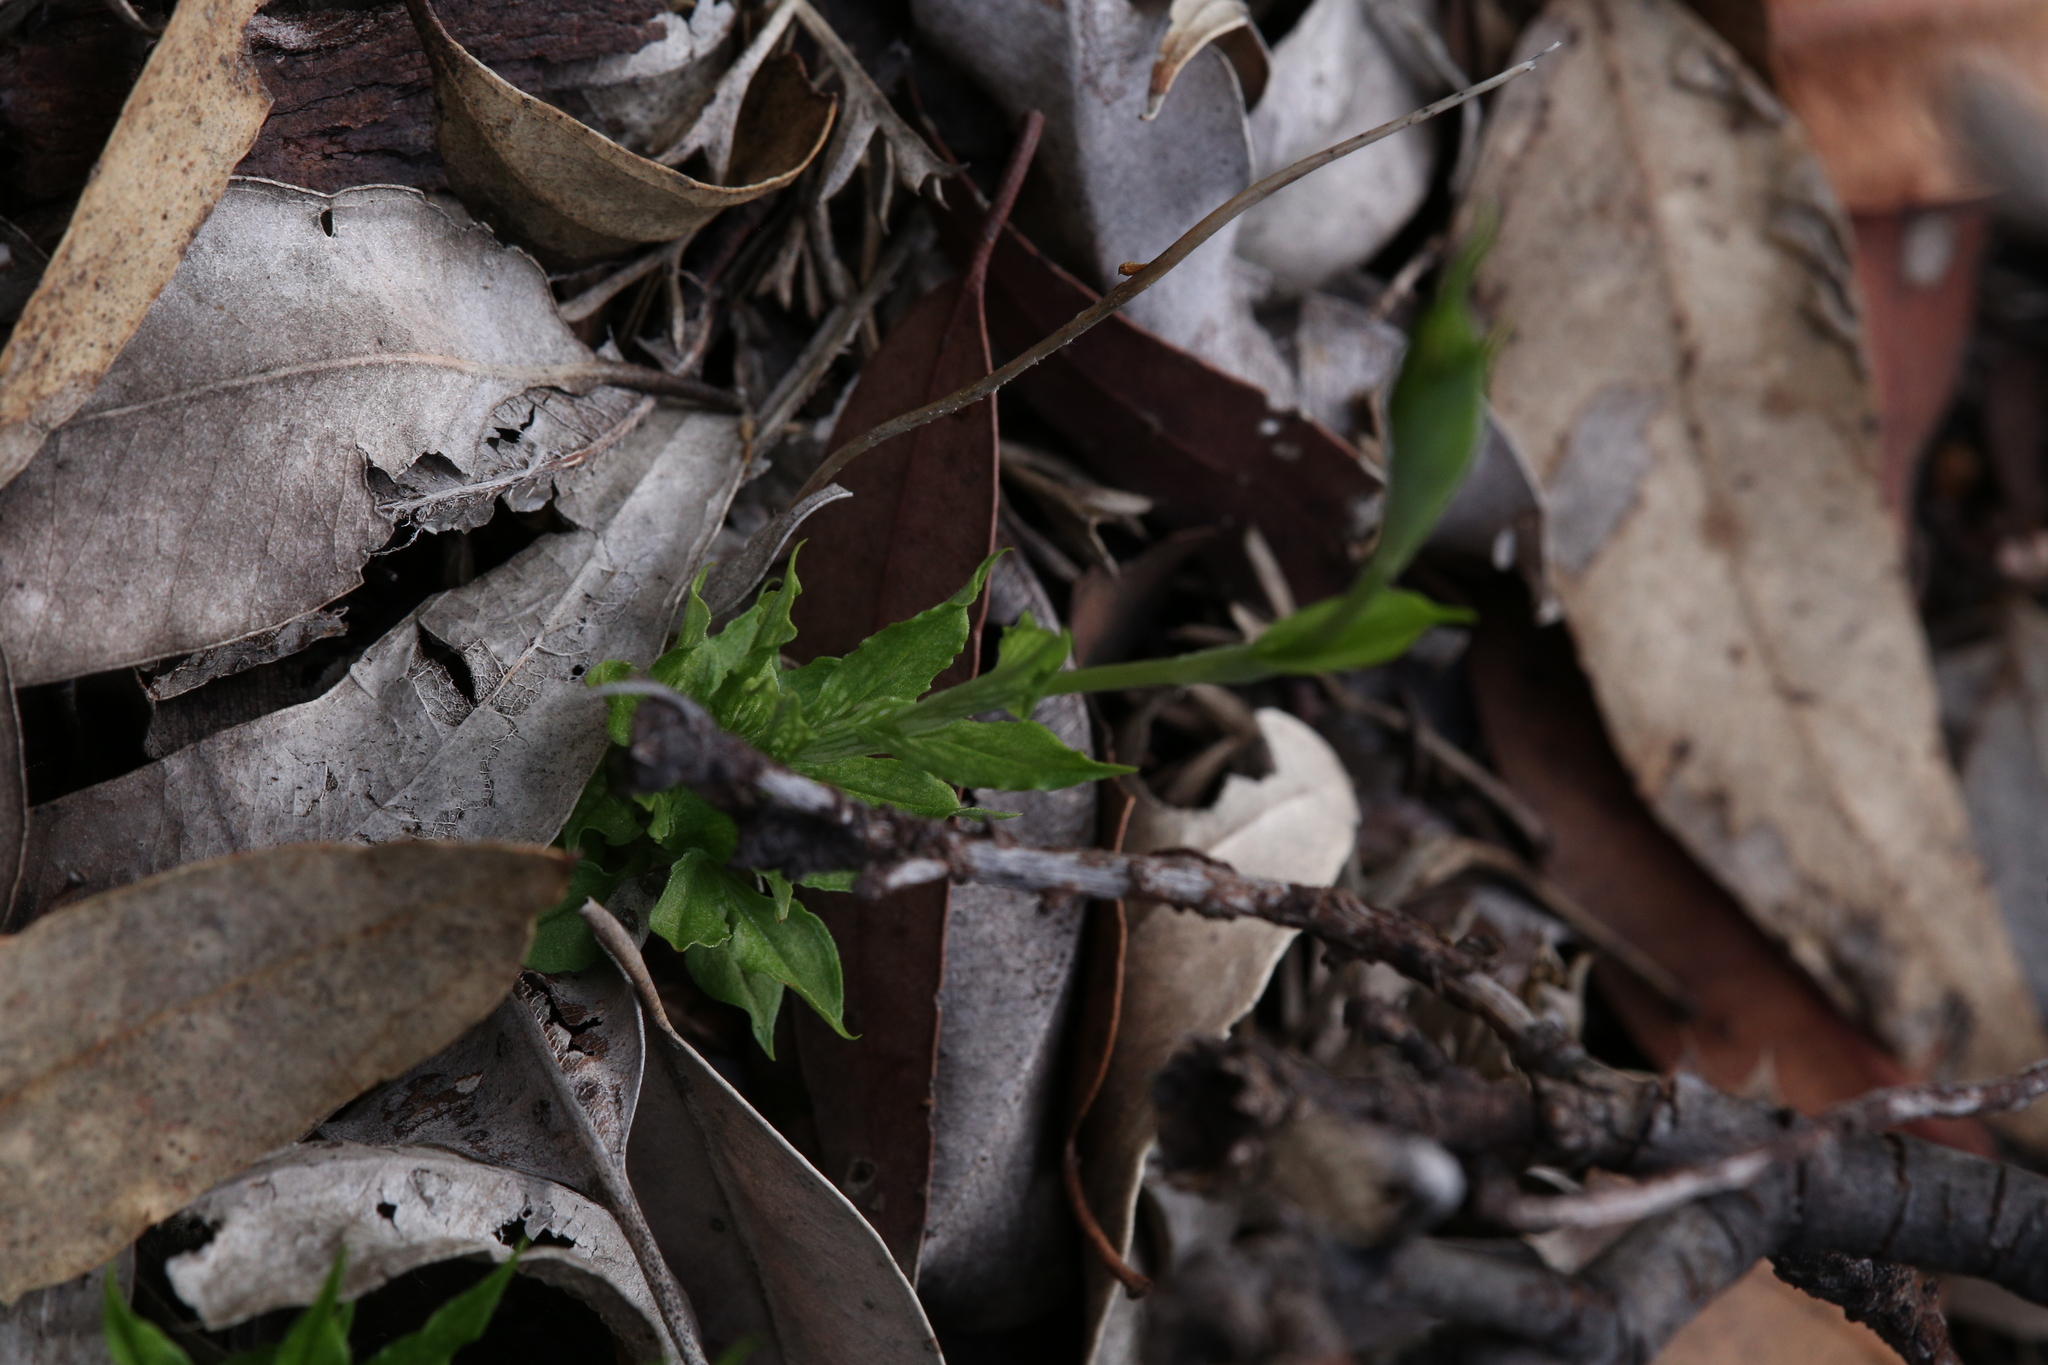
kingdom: Plantae
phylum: Tracheophyta
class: Liliopsida
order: Asparagales
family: Orchidaceae
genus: Pterostylis
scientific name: Pterostylis barbata
